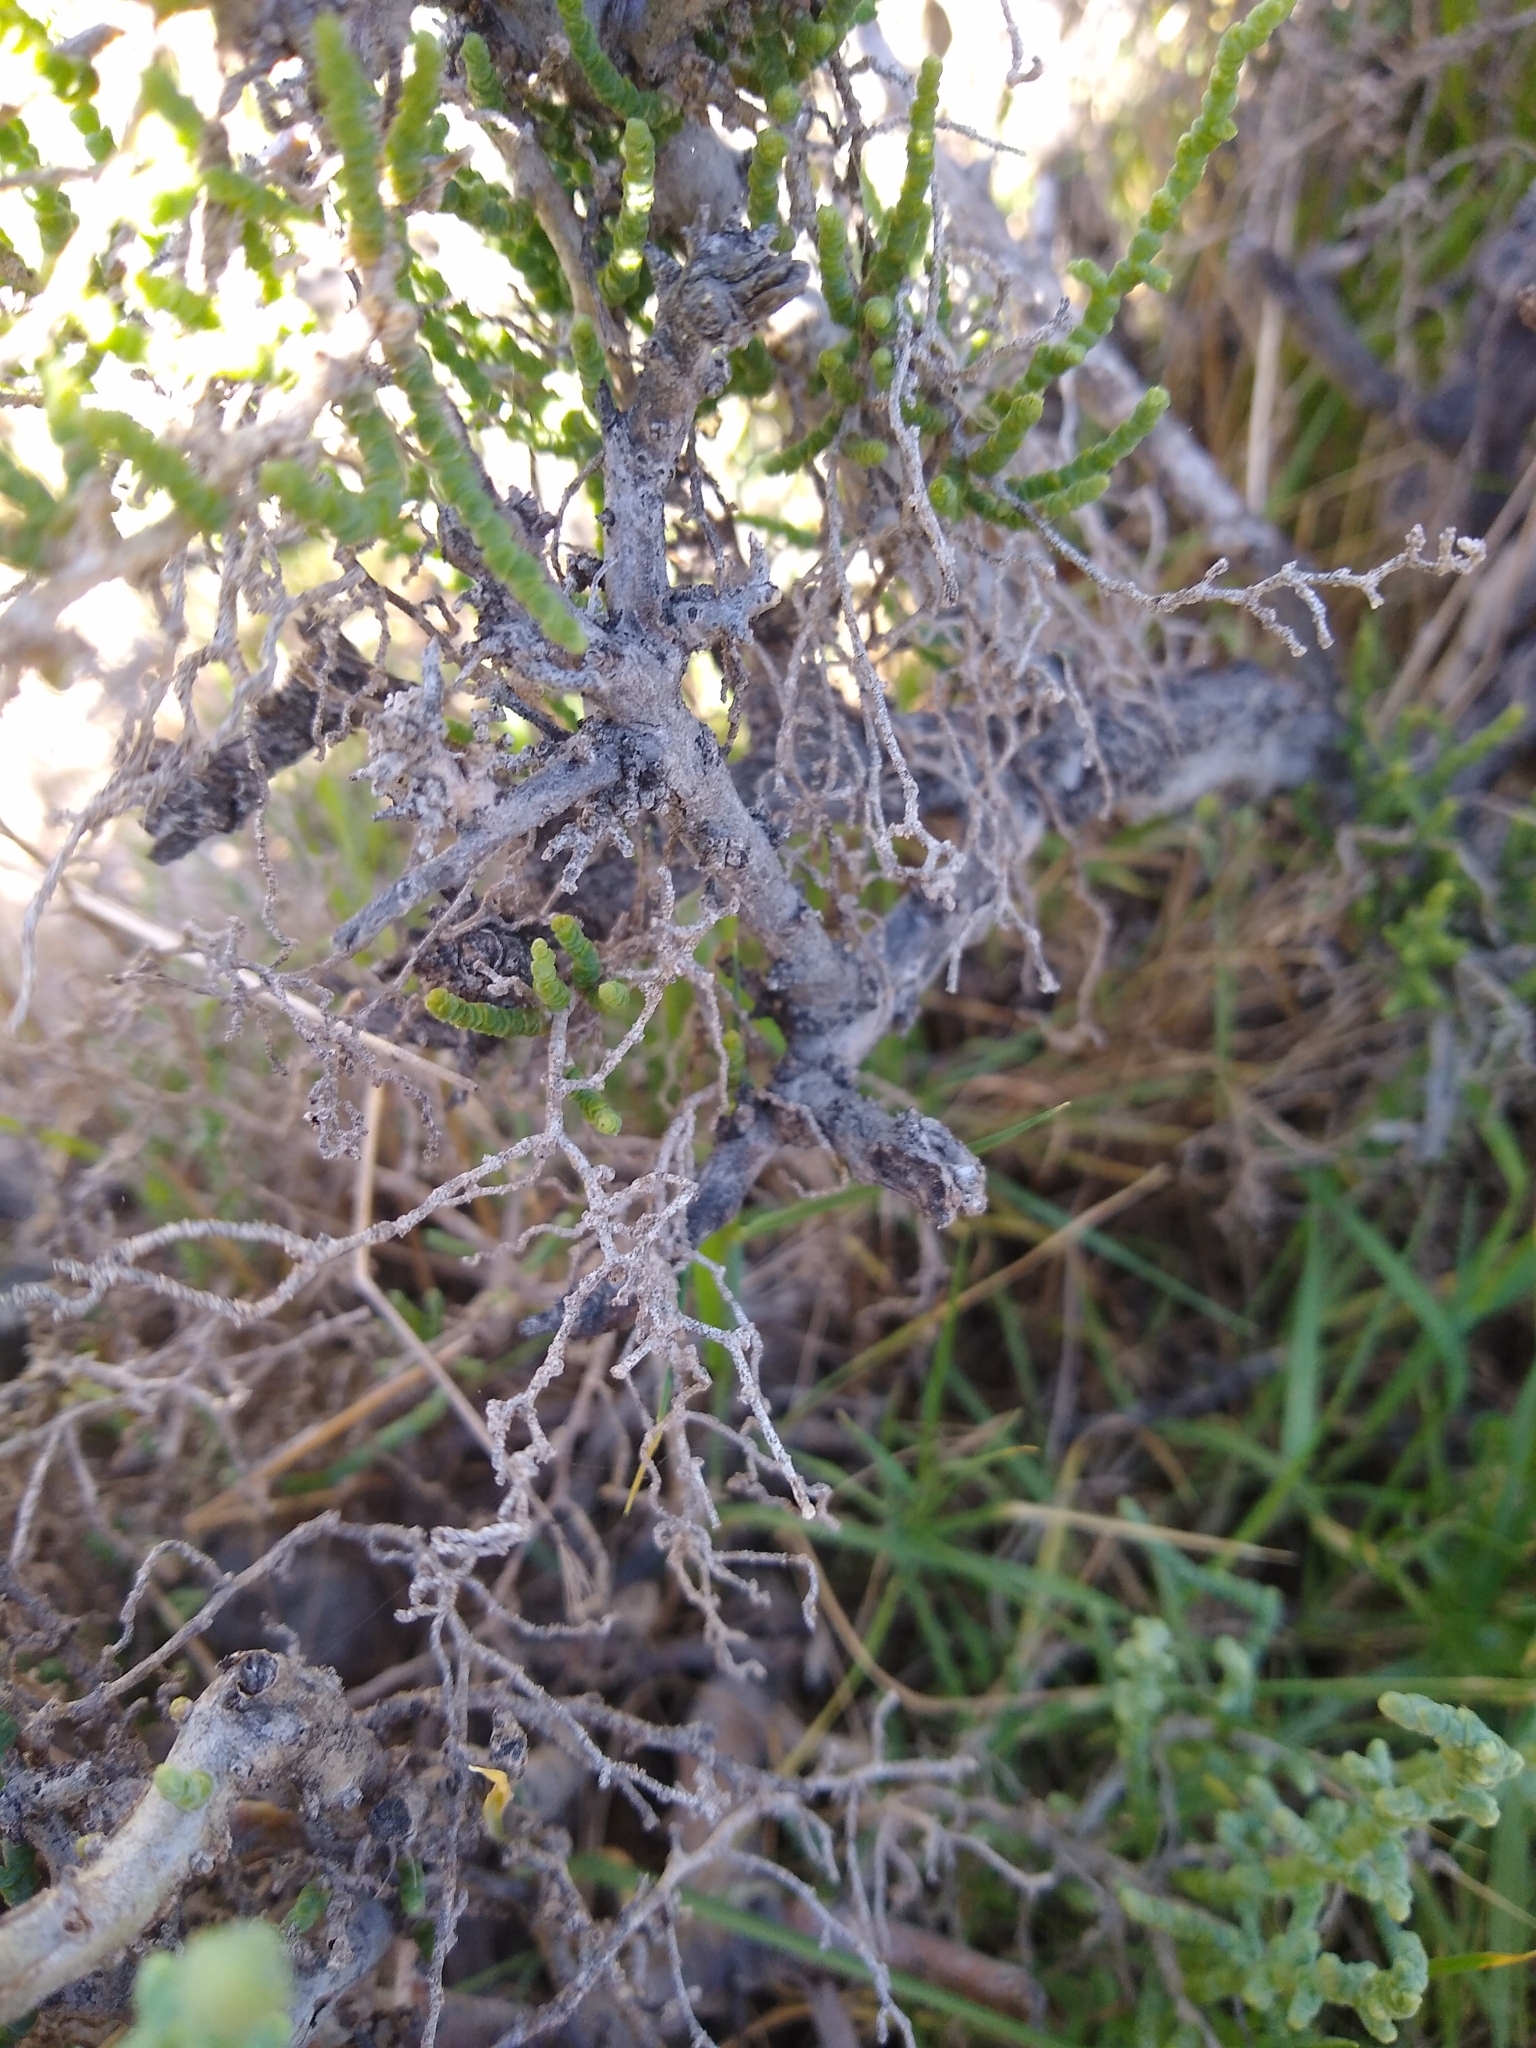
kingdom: Plantae
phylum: Tracheophyta
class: Magnoliopsida
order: Caryophyllales
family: Amaranthaceae
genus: Allenrolfea
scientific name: Allenrolfea occidentalis
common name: Iodine-bush
